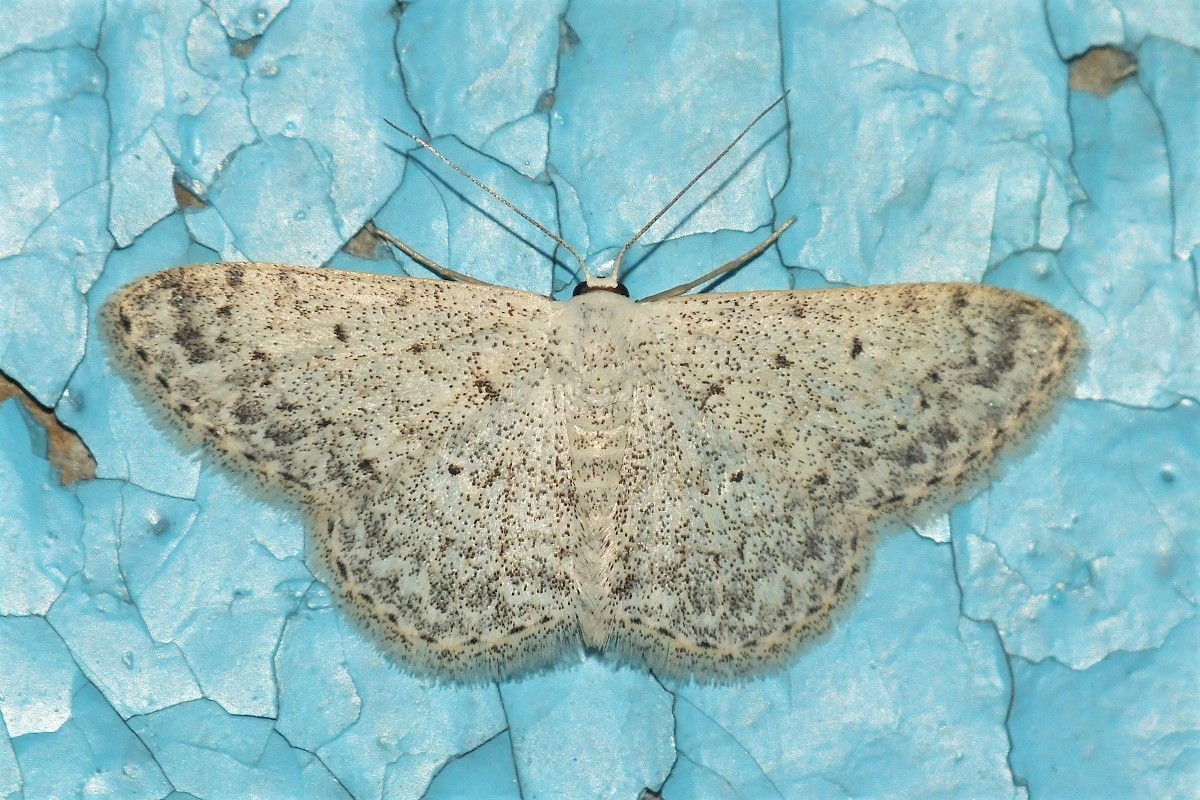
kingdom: Animalia
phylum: Arthropoda
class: Insecta
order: Lepidoptera
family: Geometridae
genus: Scopula
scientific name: Scopula marginepunctata
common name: Mullein wave
